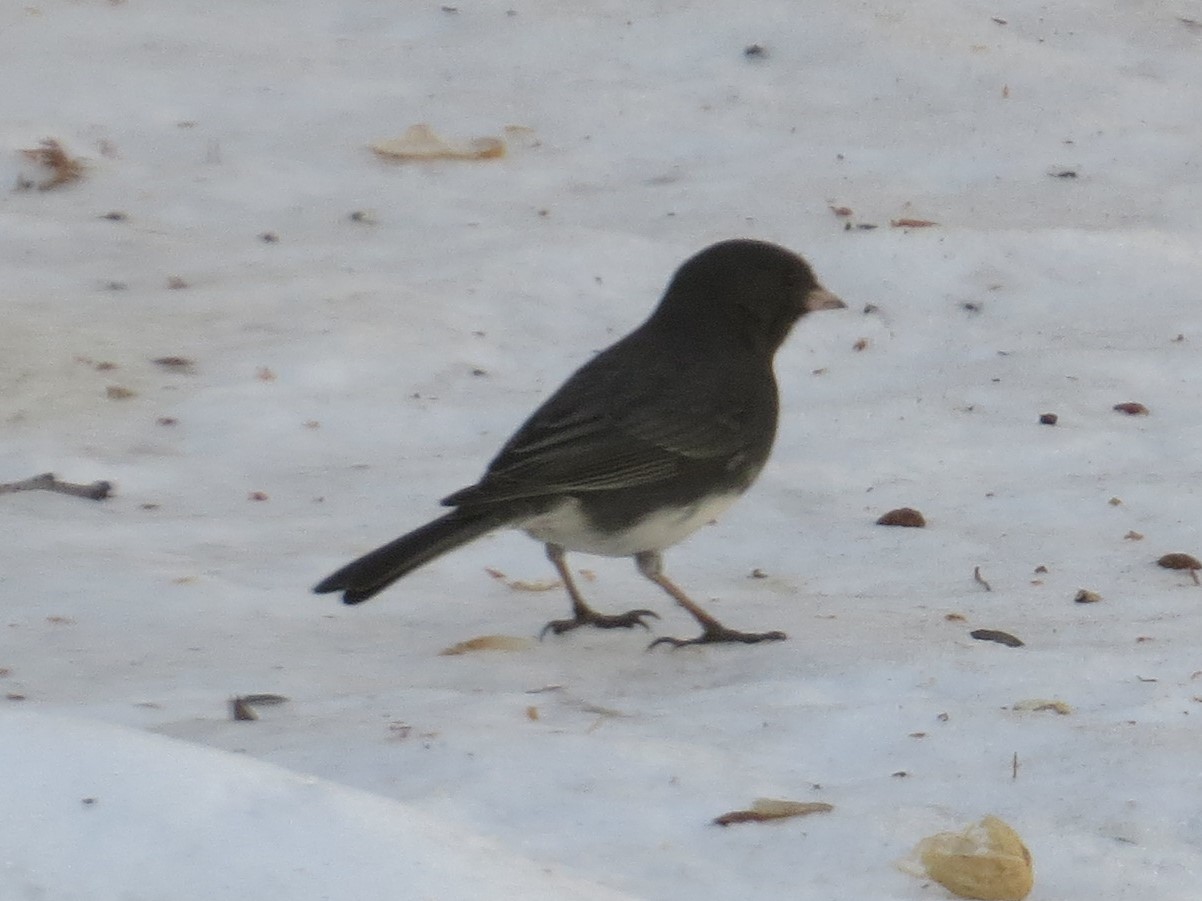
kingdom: Animalia
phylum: Chordata
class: Aves
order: Passeriformes
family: Passerellidae
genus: Junco
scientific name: Junco hyemalis
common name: Dark-eyed junco
